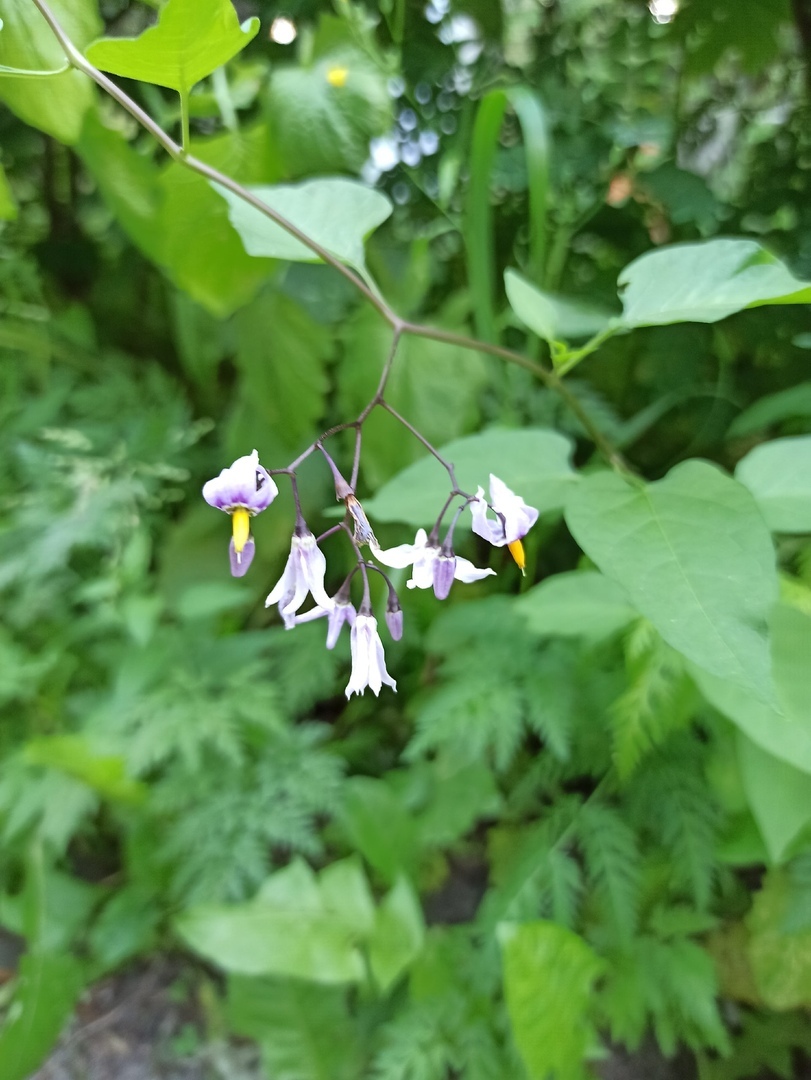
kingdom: Plantae
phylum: Tracheophyta
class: Magnoliopsida
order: Solanales
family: Solanaceae
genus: Solanum
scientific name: Solanum dulcamara
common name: Climbing nightshade
